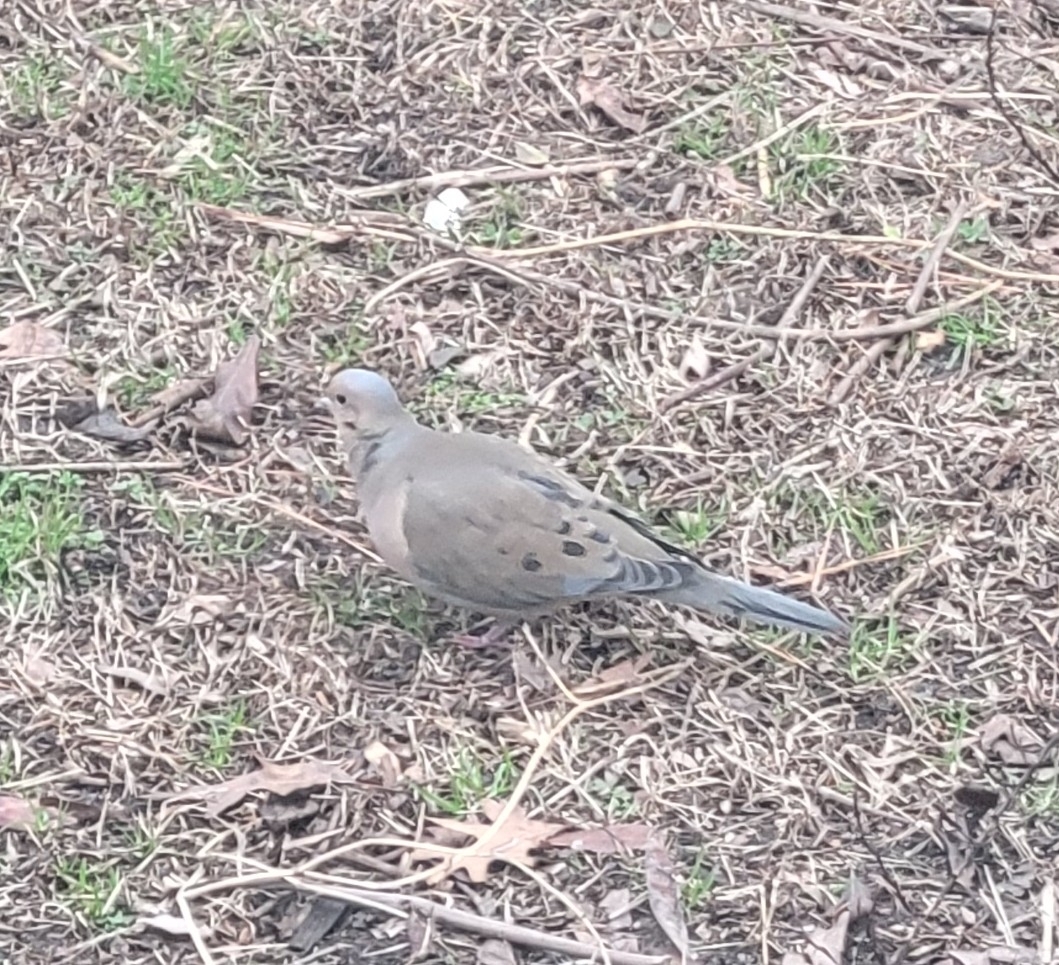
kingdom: Animalia
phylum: Chordata
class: Aves
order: Columbiformes
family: Columbidae
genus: Zenaida
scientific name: Zenaida macroura
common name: Mourning dove
